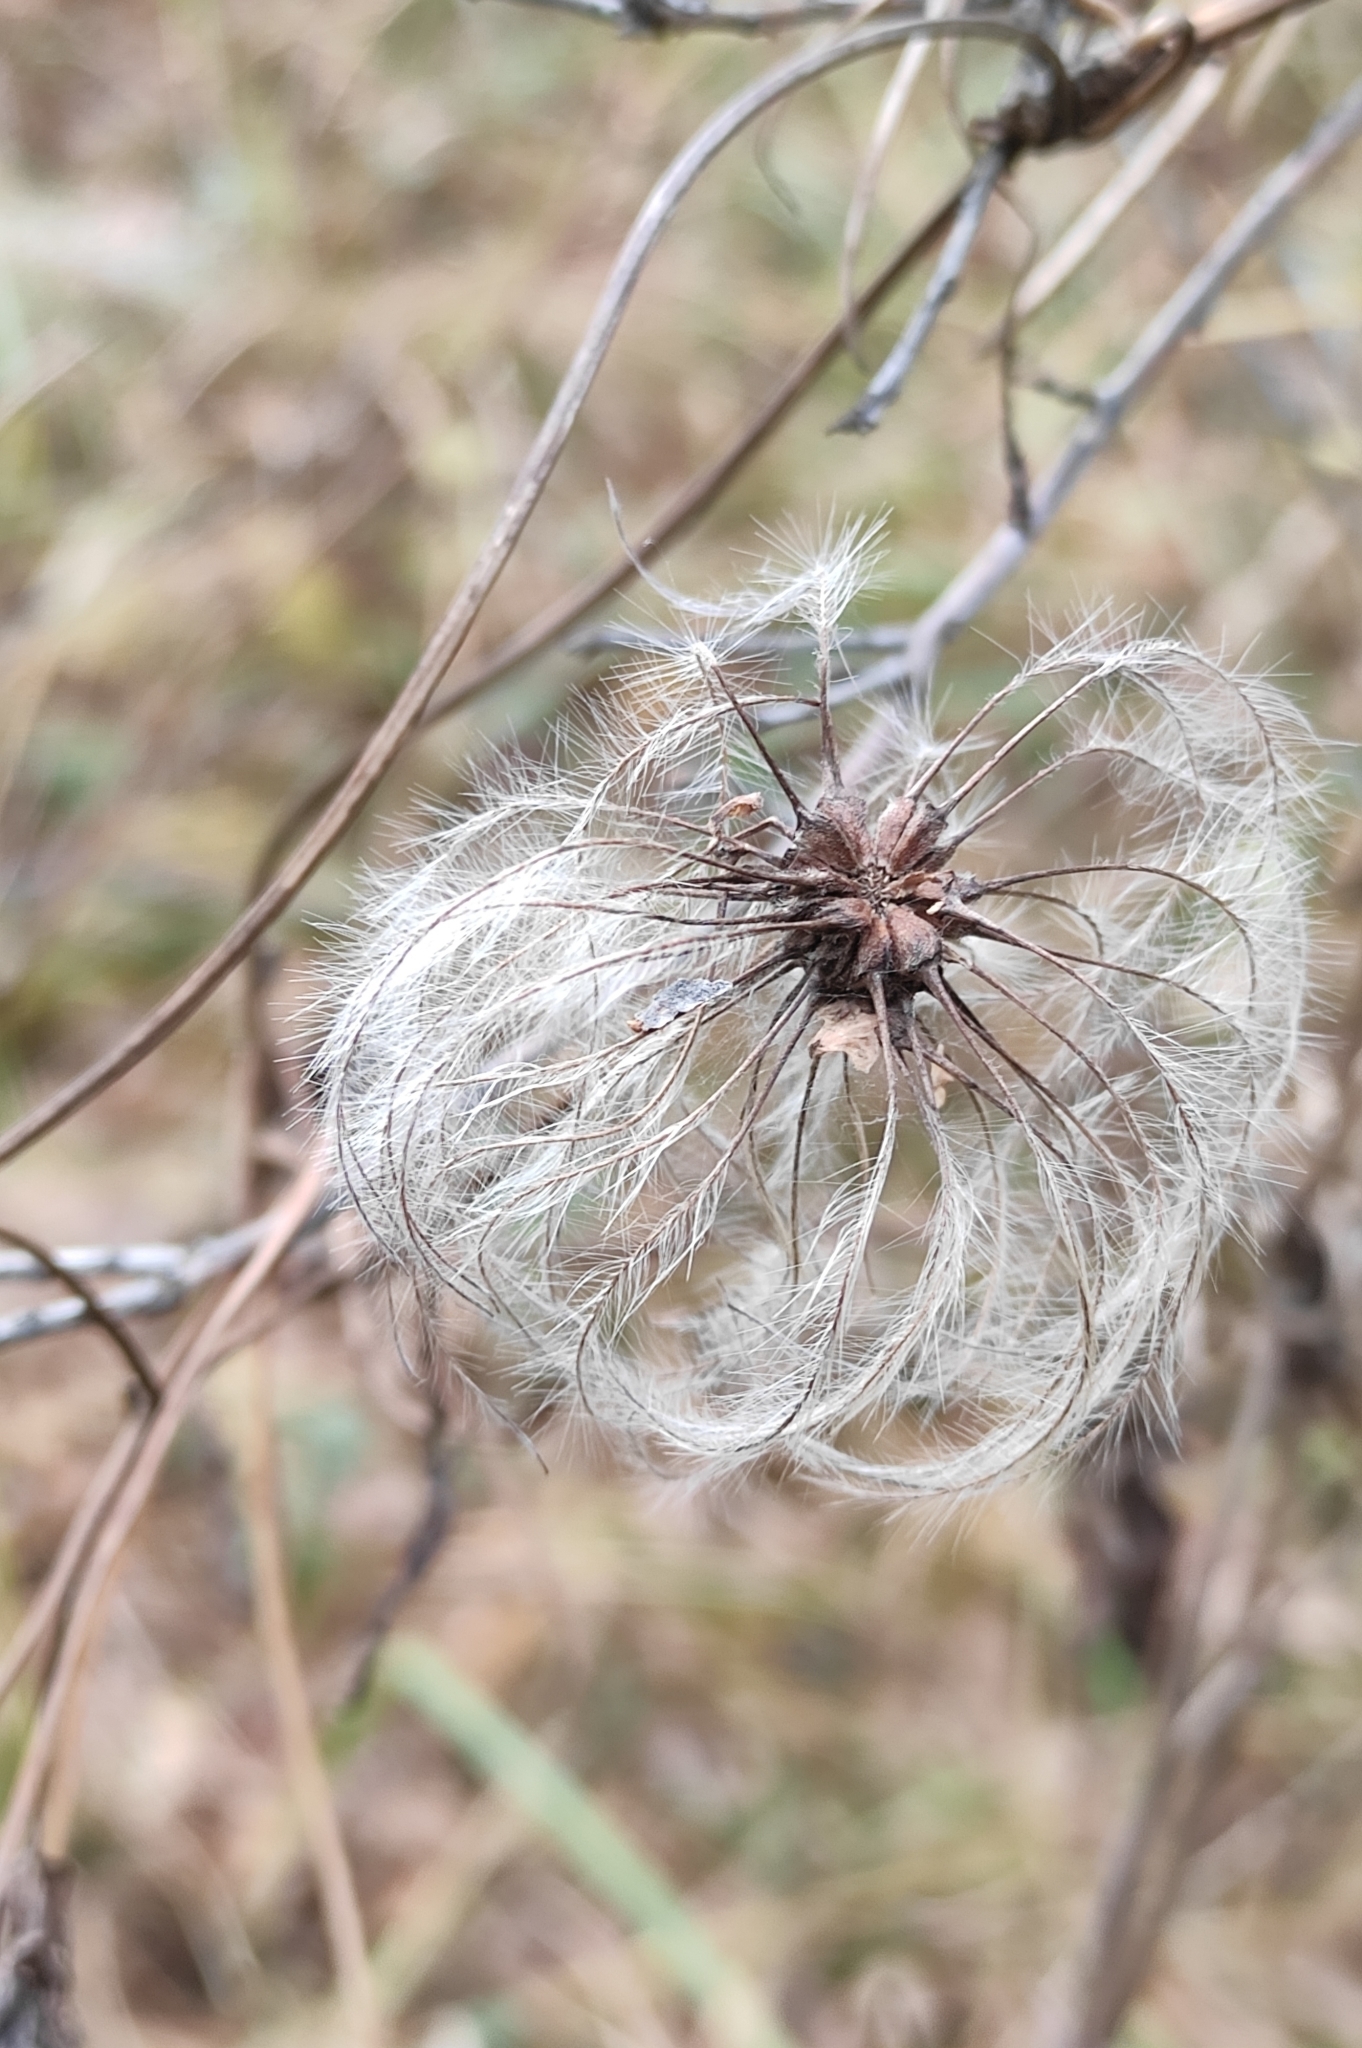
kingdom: Plantae
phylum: Tracheophyta
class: Magnoliopsida
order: Ranunculales
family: Ranunculaceae
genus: Clematis
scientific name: Clematis sibirica
